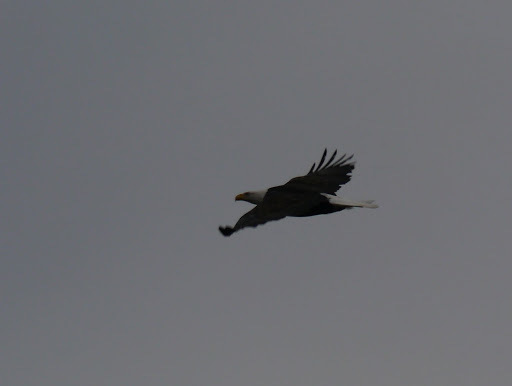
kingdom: Animalia
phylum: Chordata
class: Aves
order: Accipitriformes
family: Accipitridae
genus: Haliaeetus
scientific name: Haliaeetus leucocephalus
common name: Bald eagle
